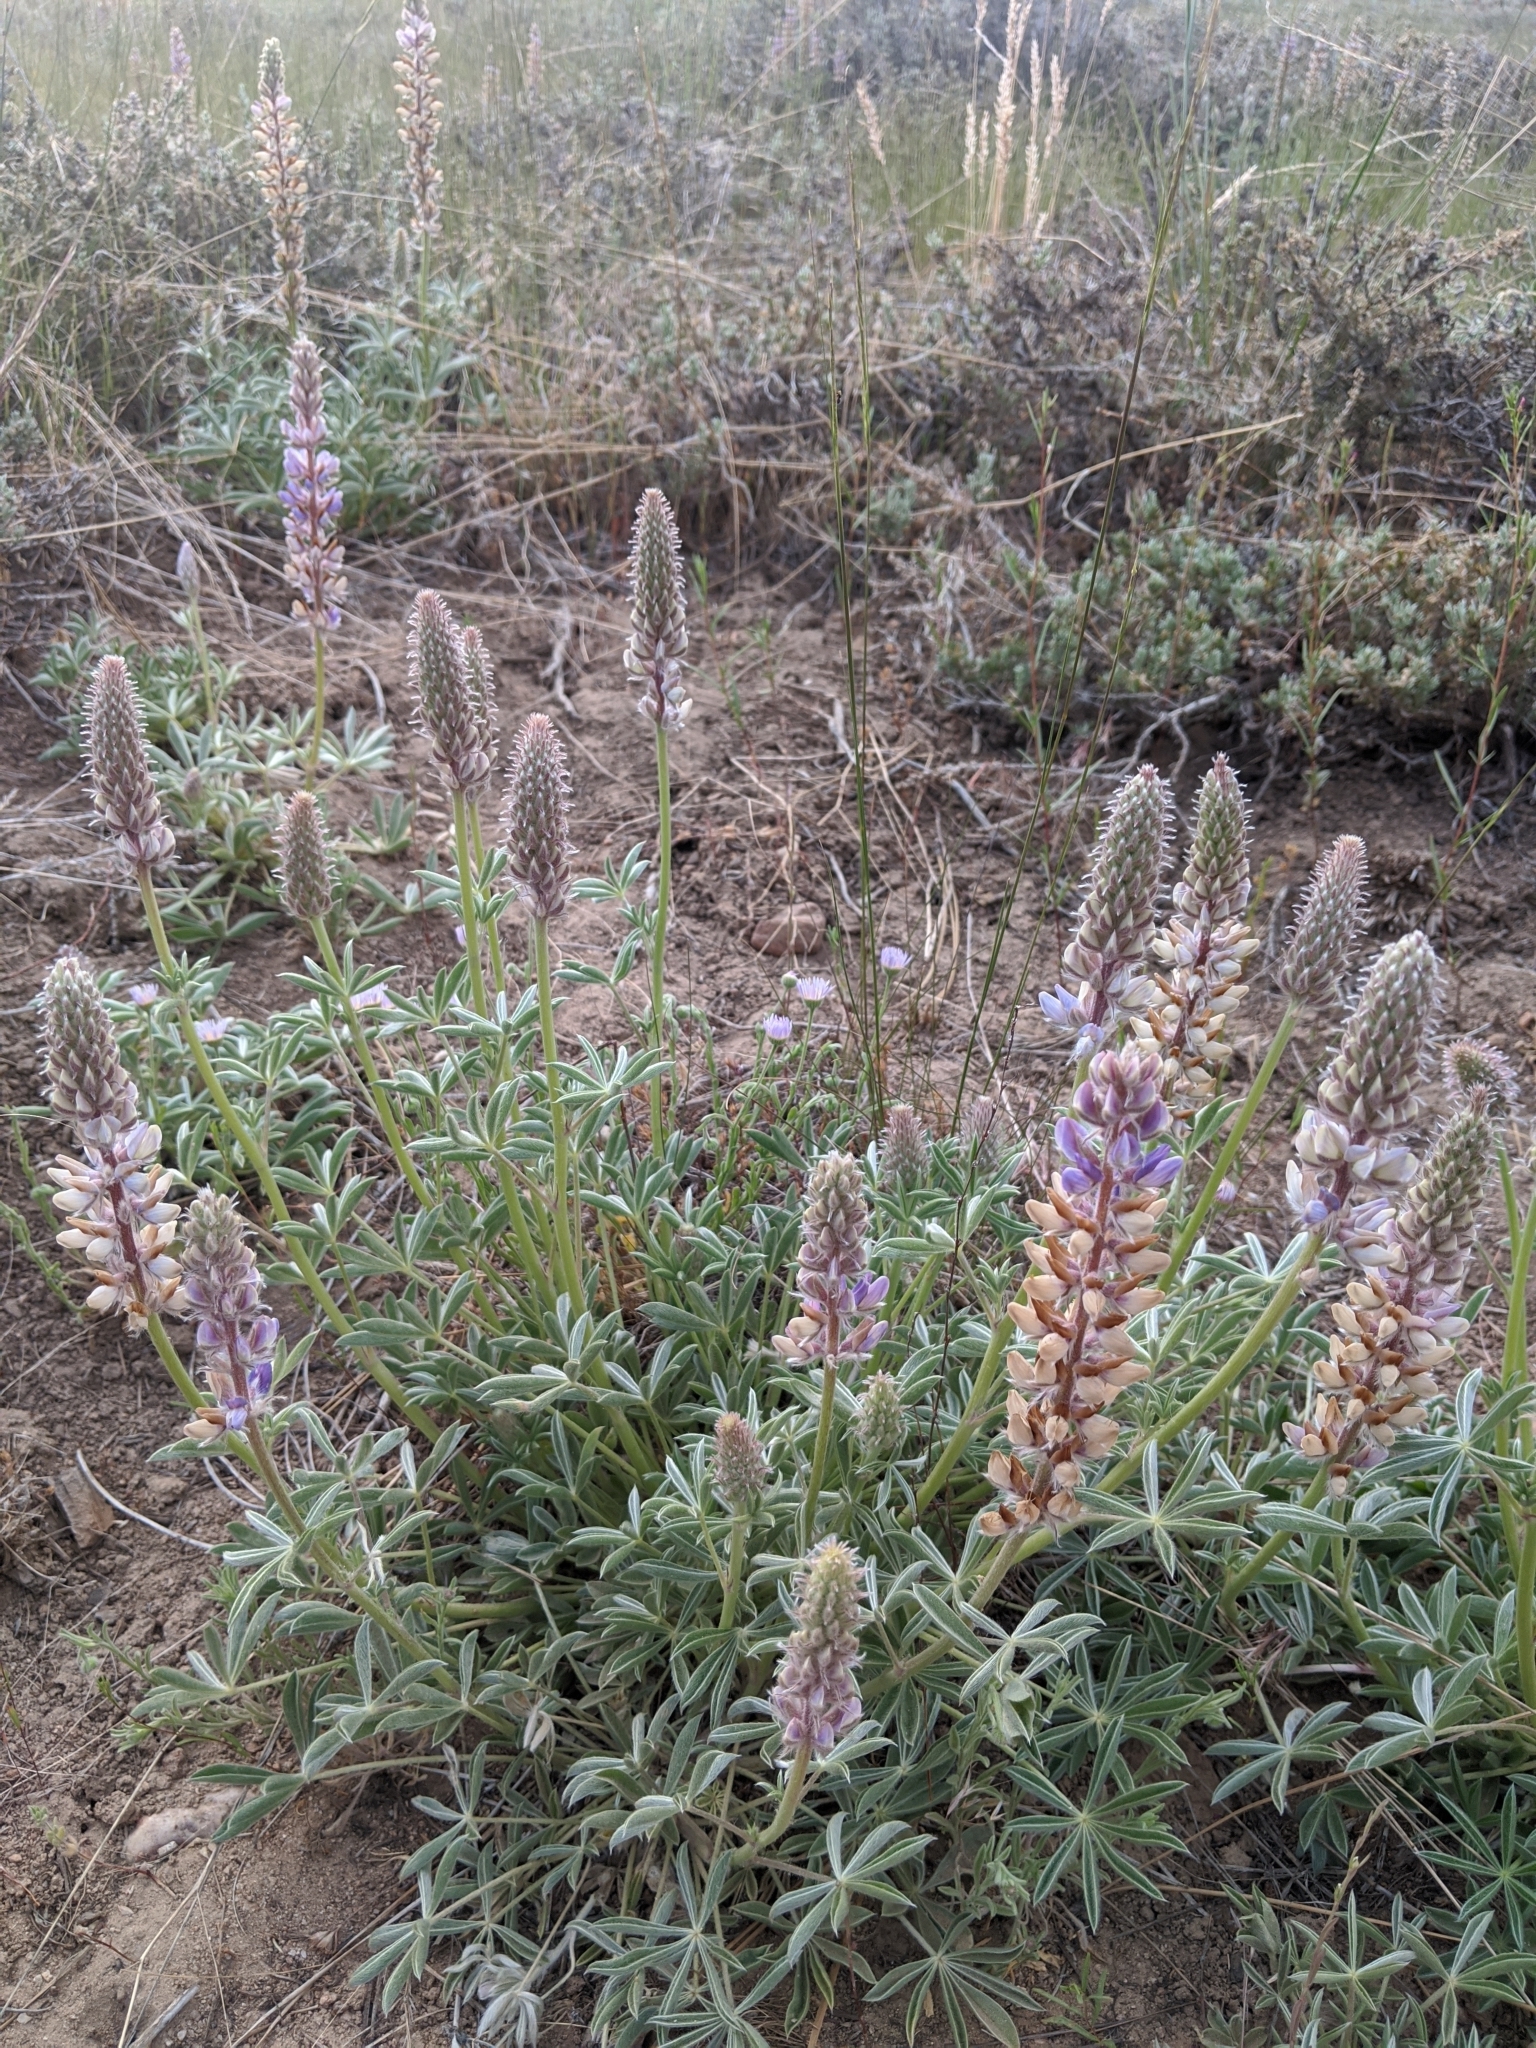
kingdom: Plantae
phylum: Tracheophyta
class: Magnoliopsida
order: Fabales
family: Fabaceae
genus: Lupinus
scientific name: Lupinus formosus
